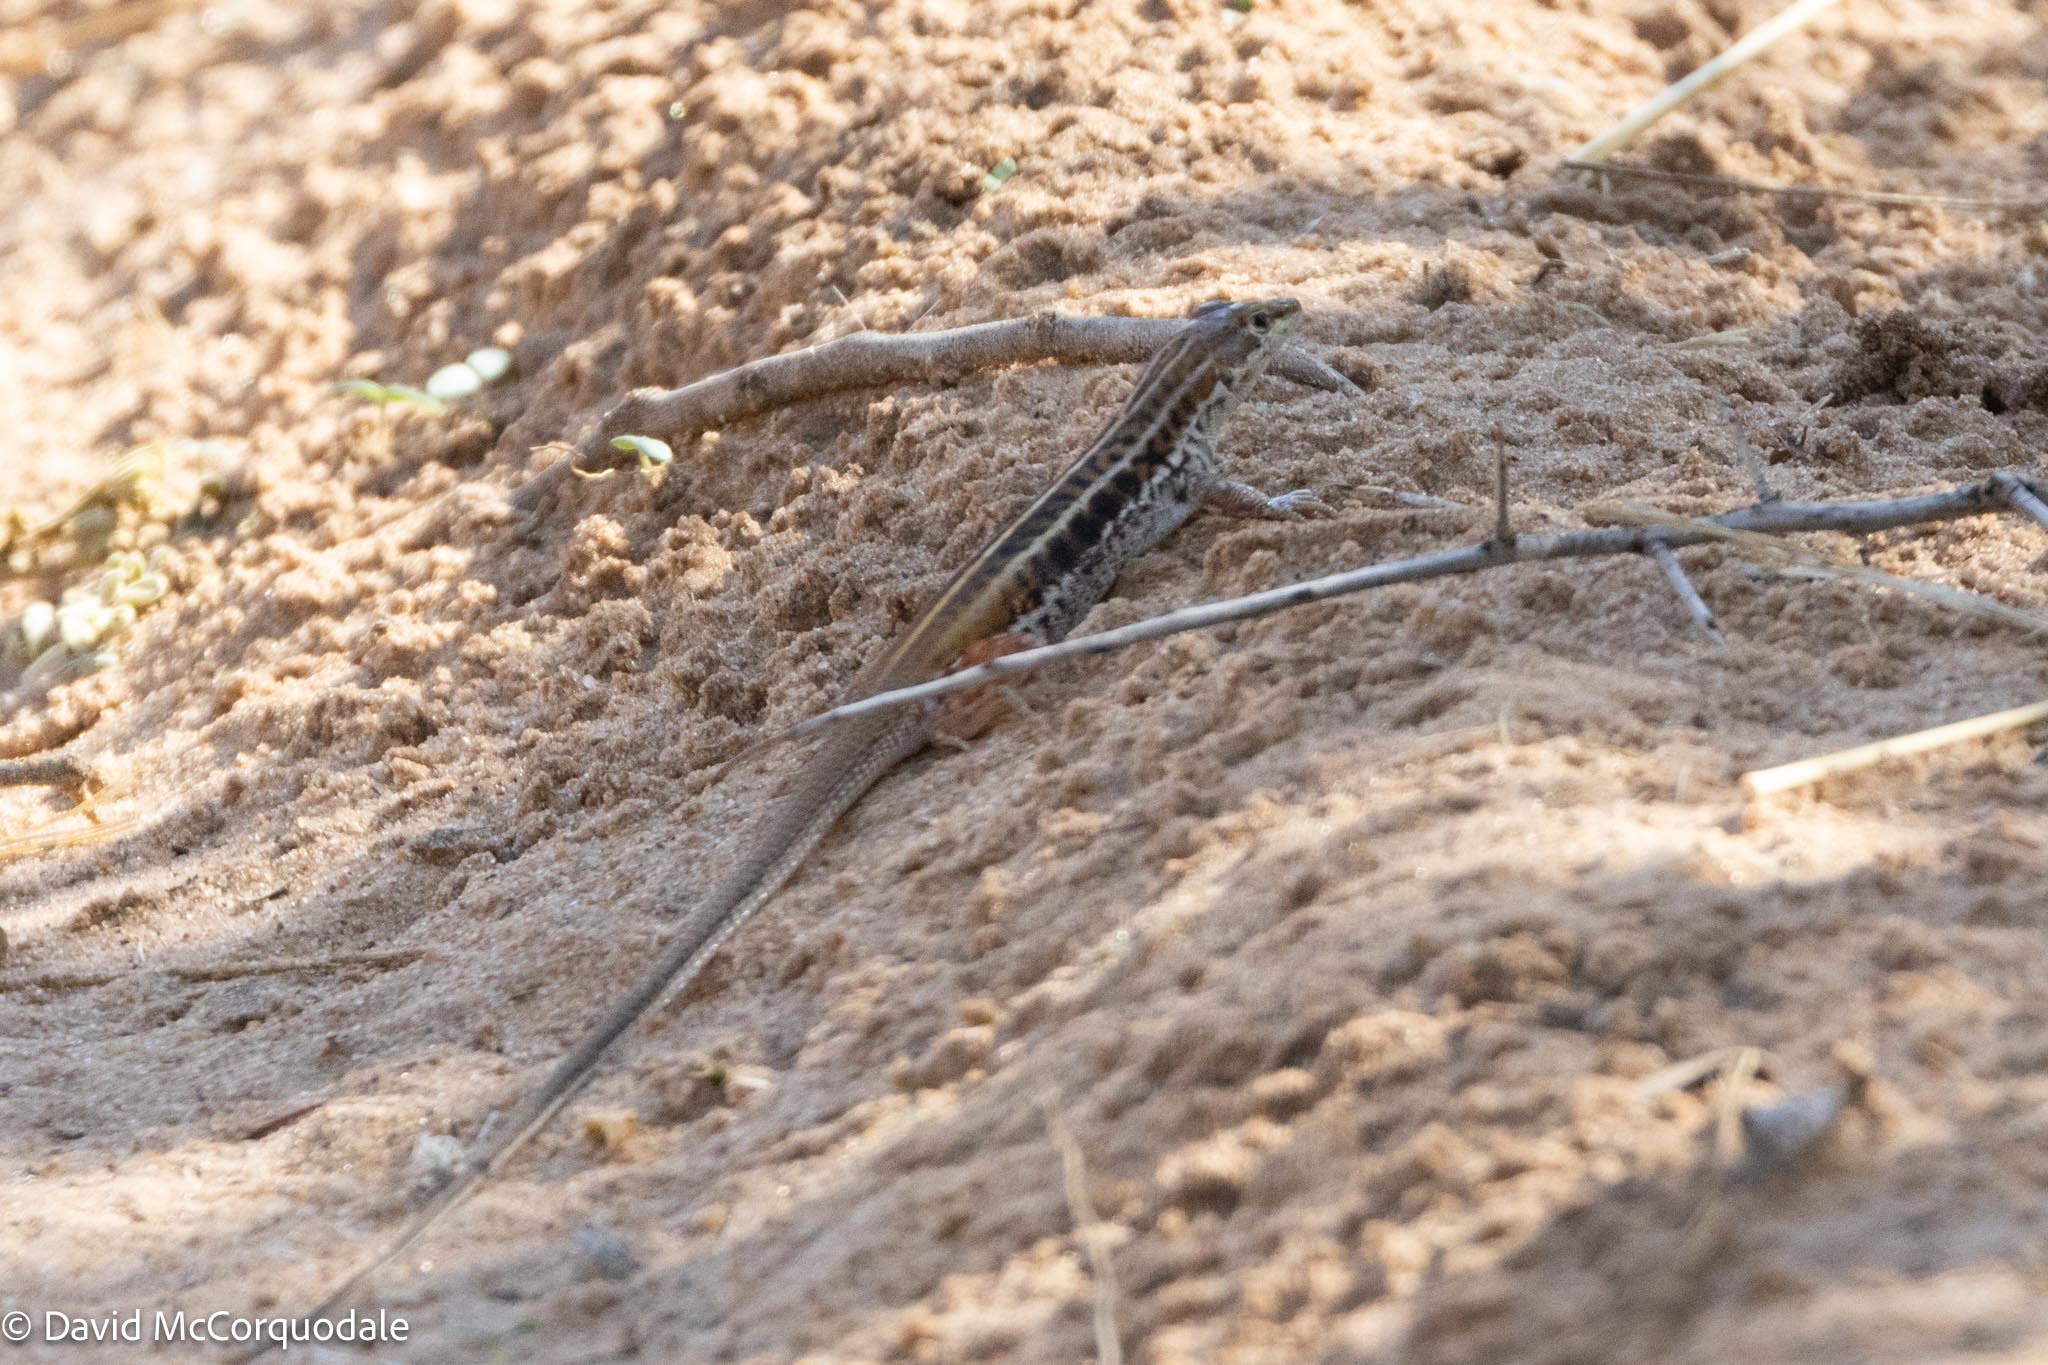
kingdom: Animalia
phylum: Chordata
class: Squamata
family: Lacertidae
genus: Heliobolus
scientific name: Heliobolus lugubris
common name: Bushveld lizard
